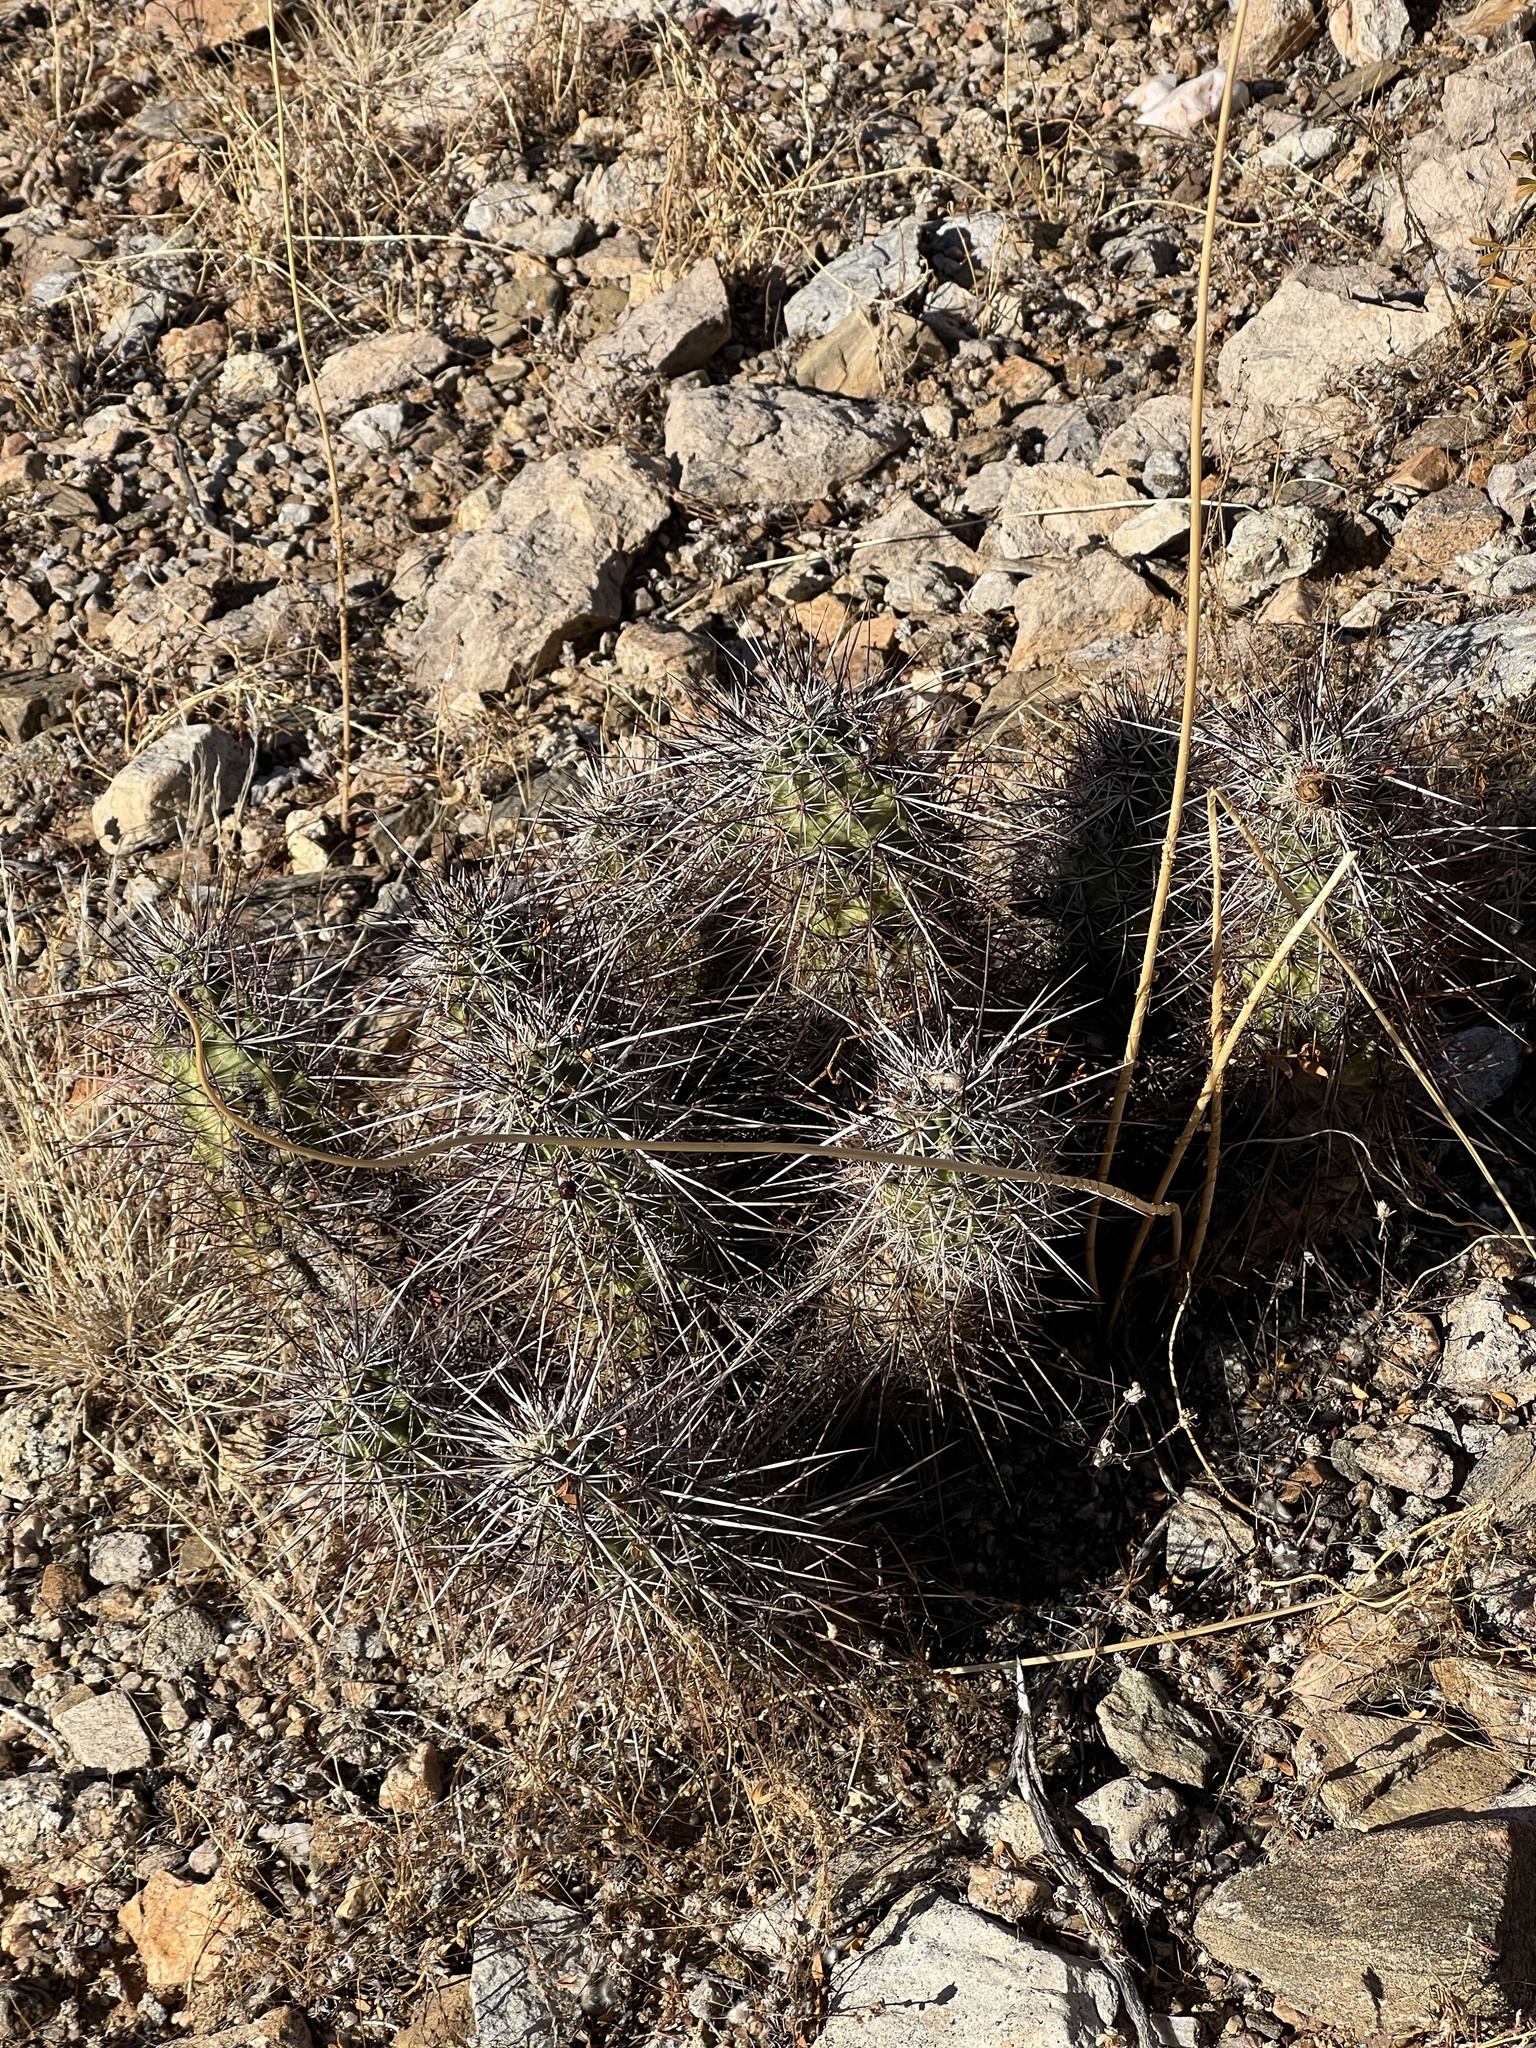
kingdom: Plantae
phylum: Tracheophyta
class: Magnoliopsida
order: Caryophyllales
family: Cactaceae
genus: Echinocereus
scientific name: Echinocereus engelmannii
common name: Engelmann's hedgehog cactus
